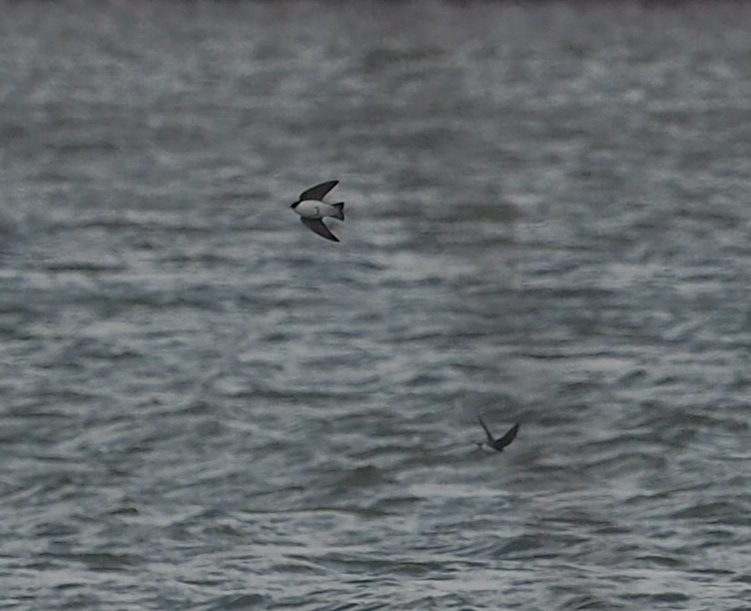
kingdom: Animalia
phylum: Chordata
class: Aves
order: Passeriformes
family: Hirundinidae
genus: Tachycineta
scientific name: Tachycineta bicolor
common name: Tree swallow
